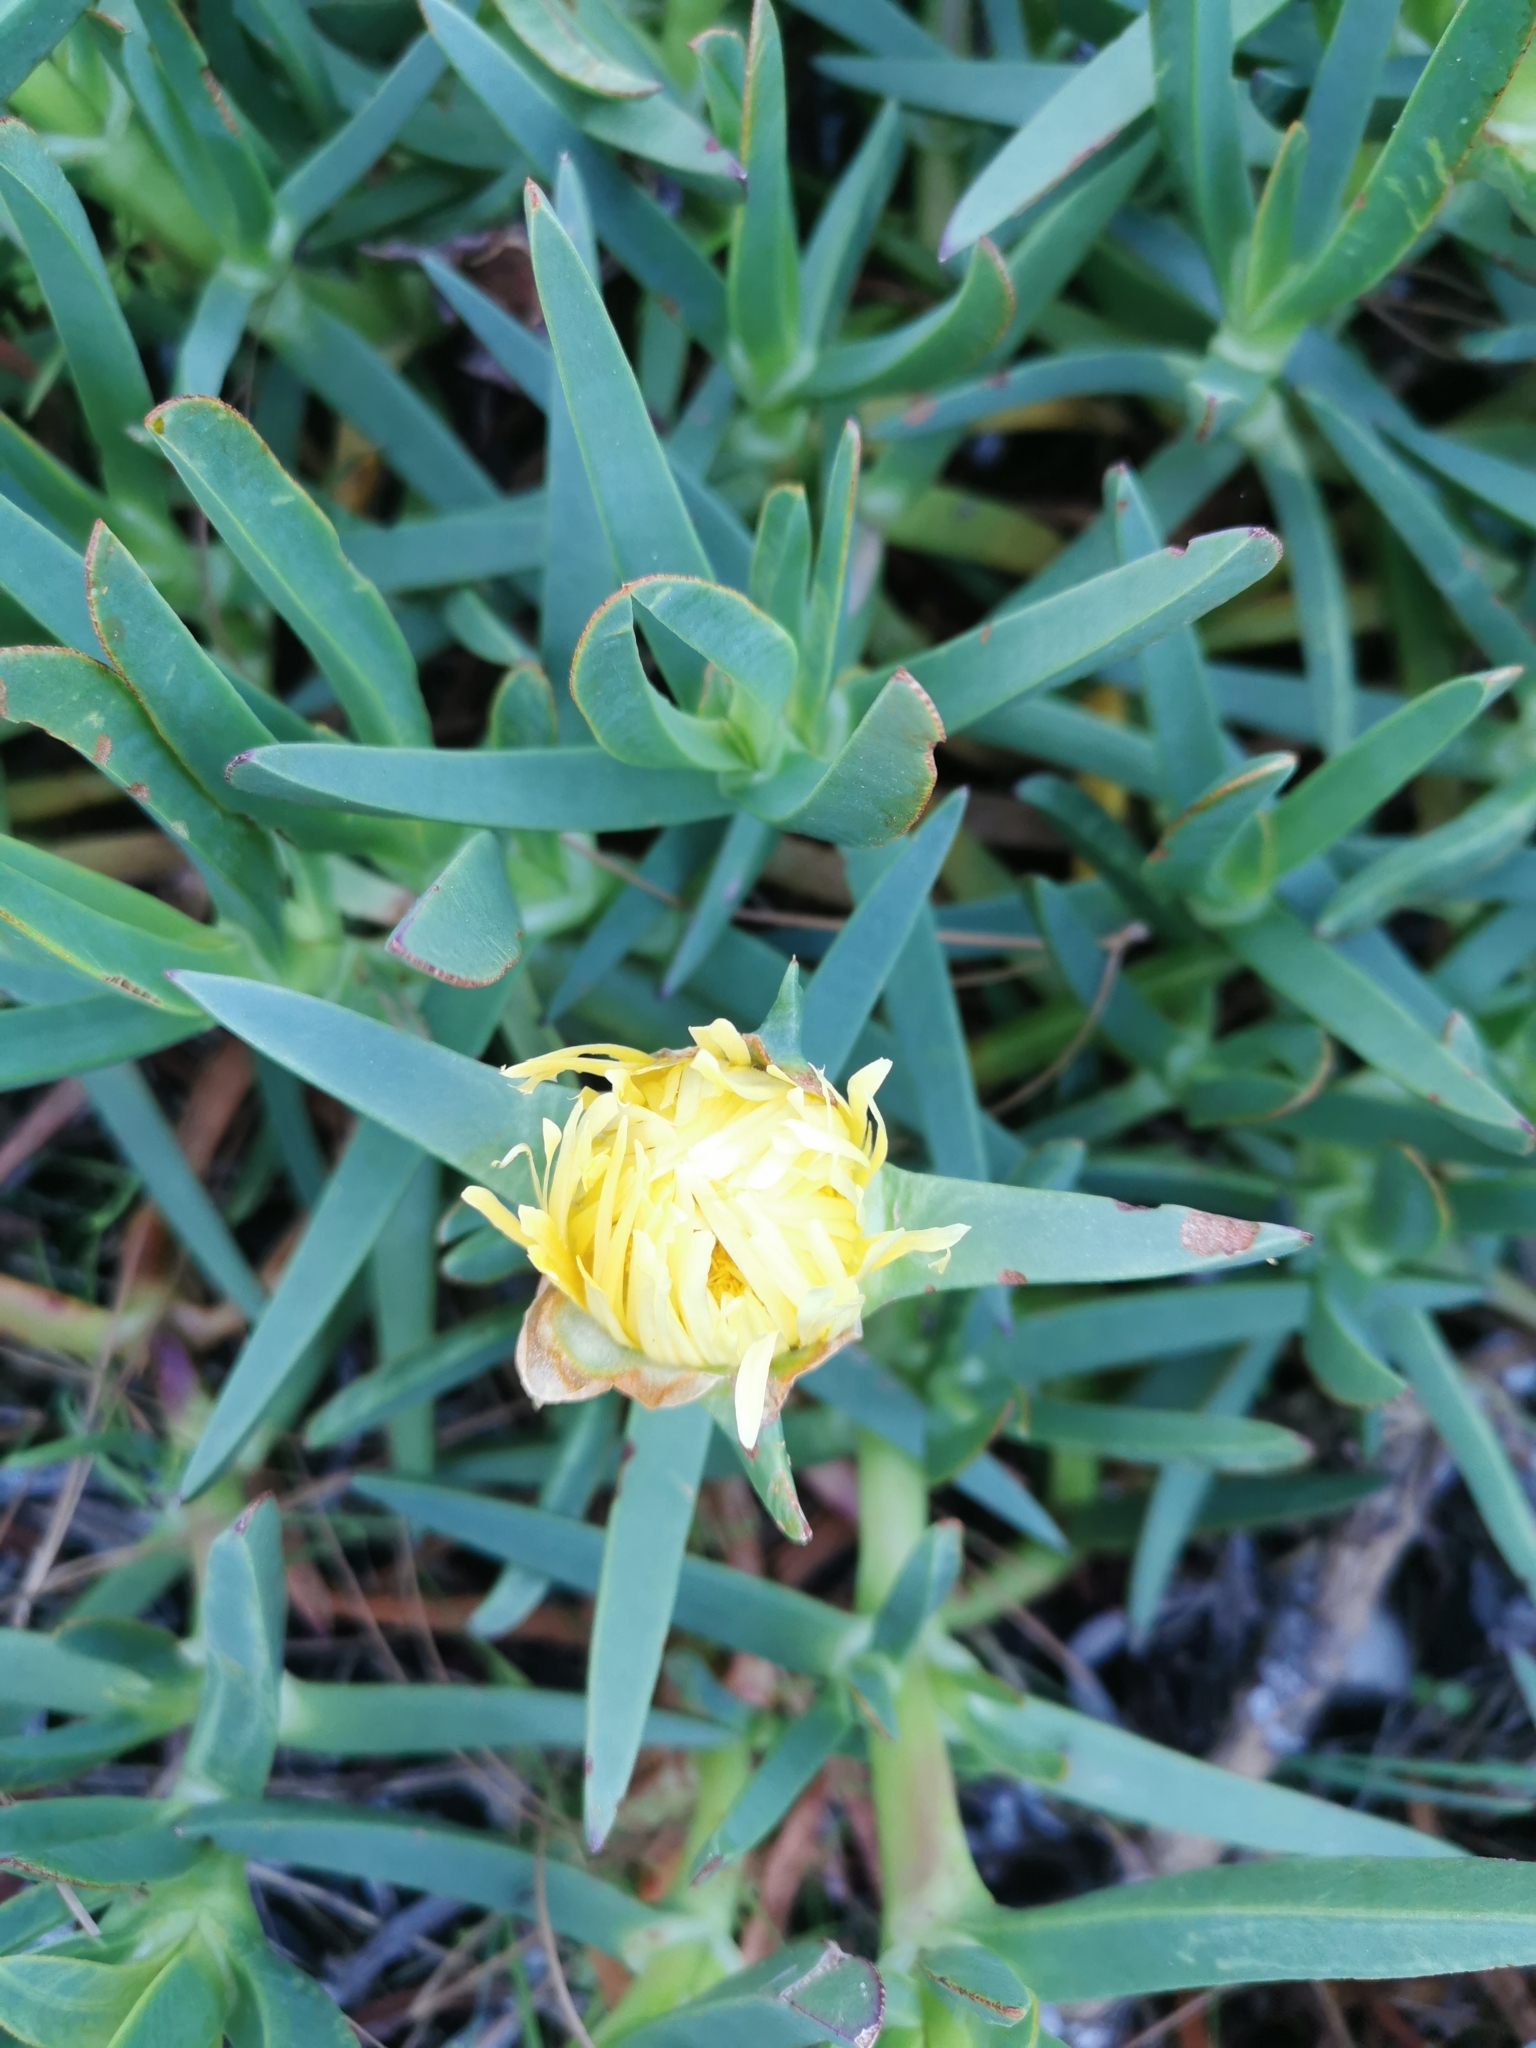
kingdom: Plantae
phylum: Tracheophyta
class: Magnoliopsida
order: Caryophyllales
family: Aizoaceae
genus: Carpobrotus
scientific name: Carpobrotus edulis
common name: Hottentot-fig
